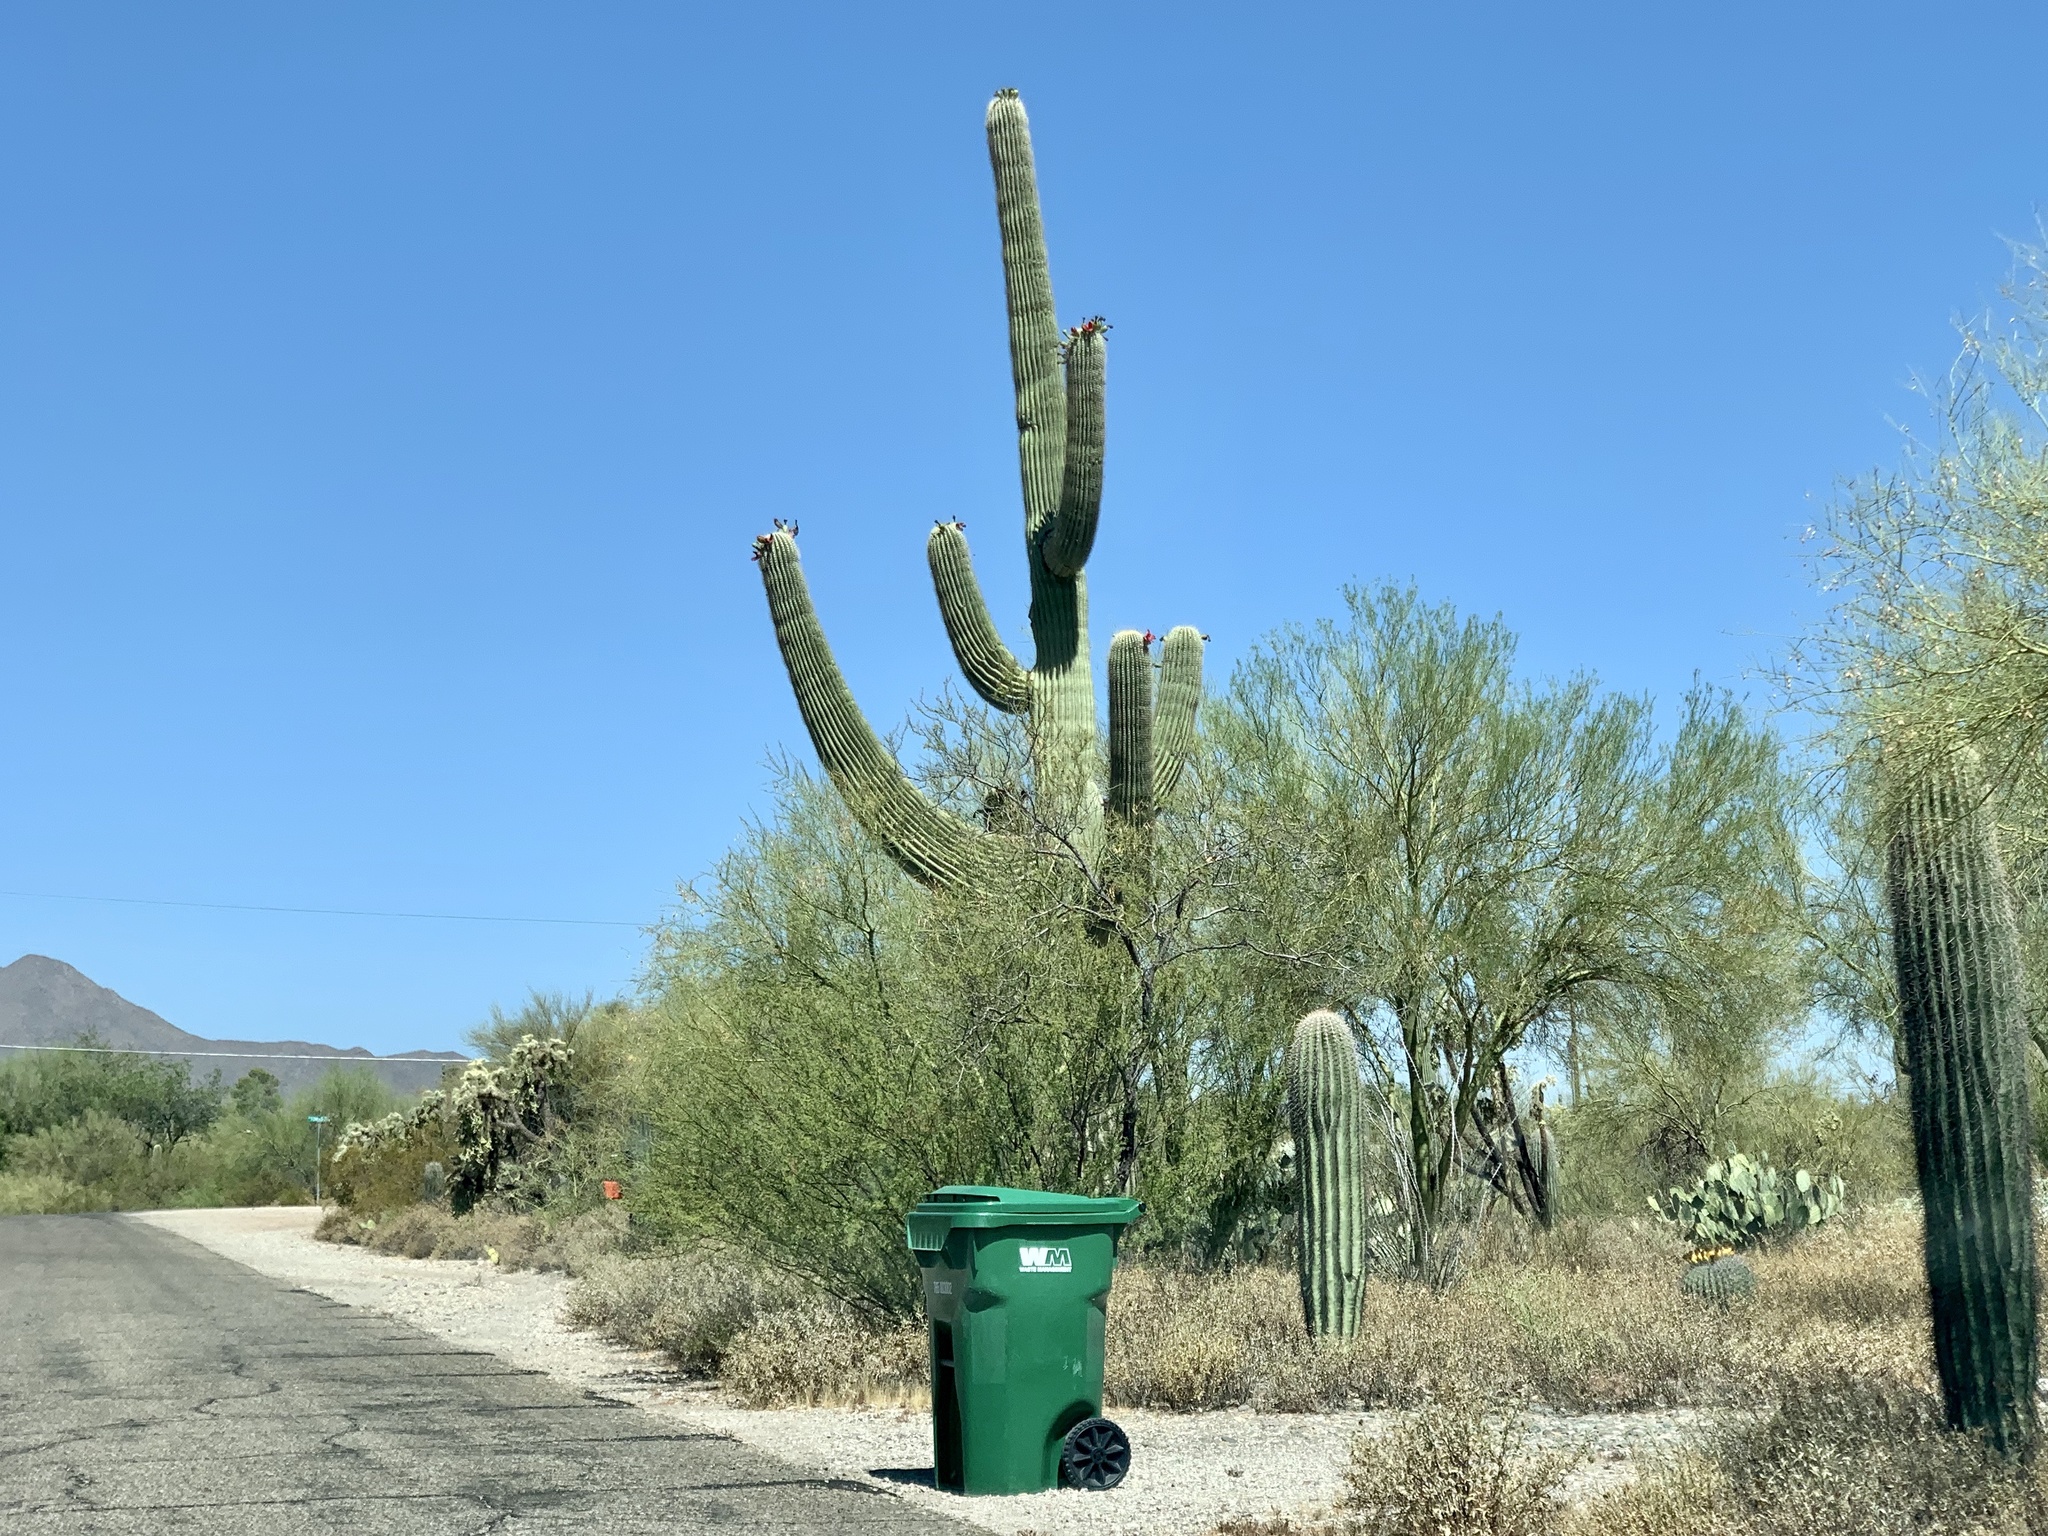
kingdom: Plantae
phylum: Tracheophyta
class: Magnoliopsida
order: Caryophyllales
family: Cactaceae
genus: Carnegiea
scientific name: Carnegiea gigantea
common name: Saguaro
